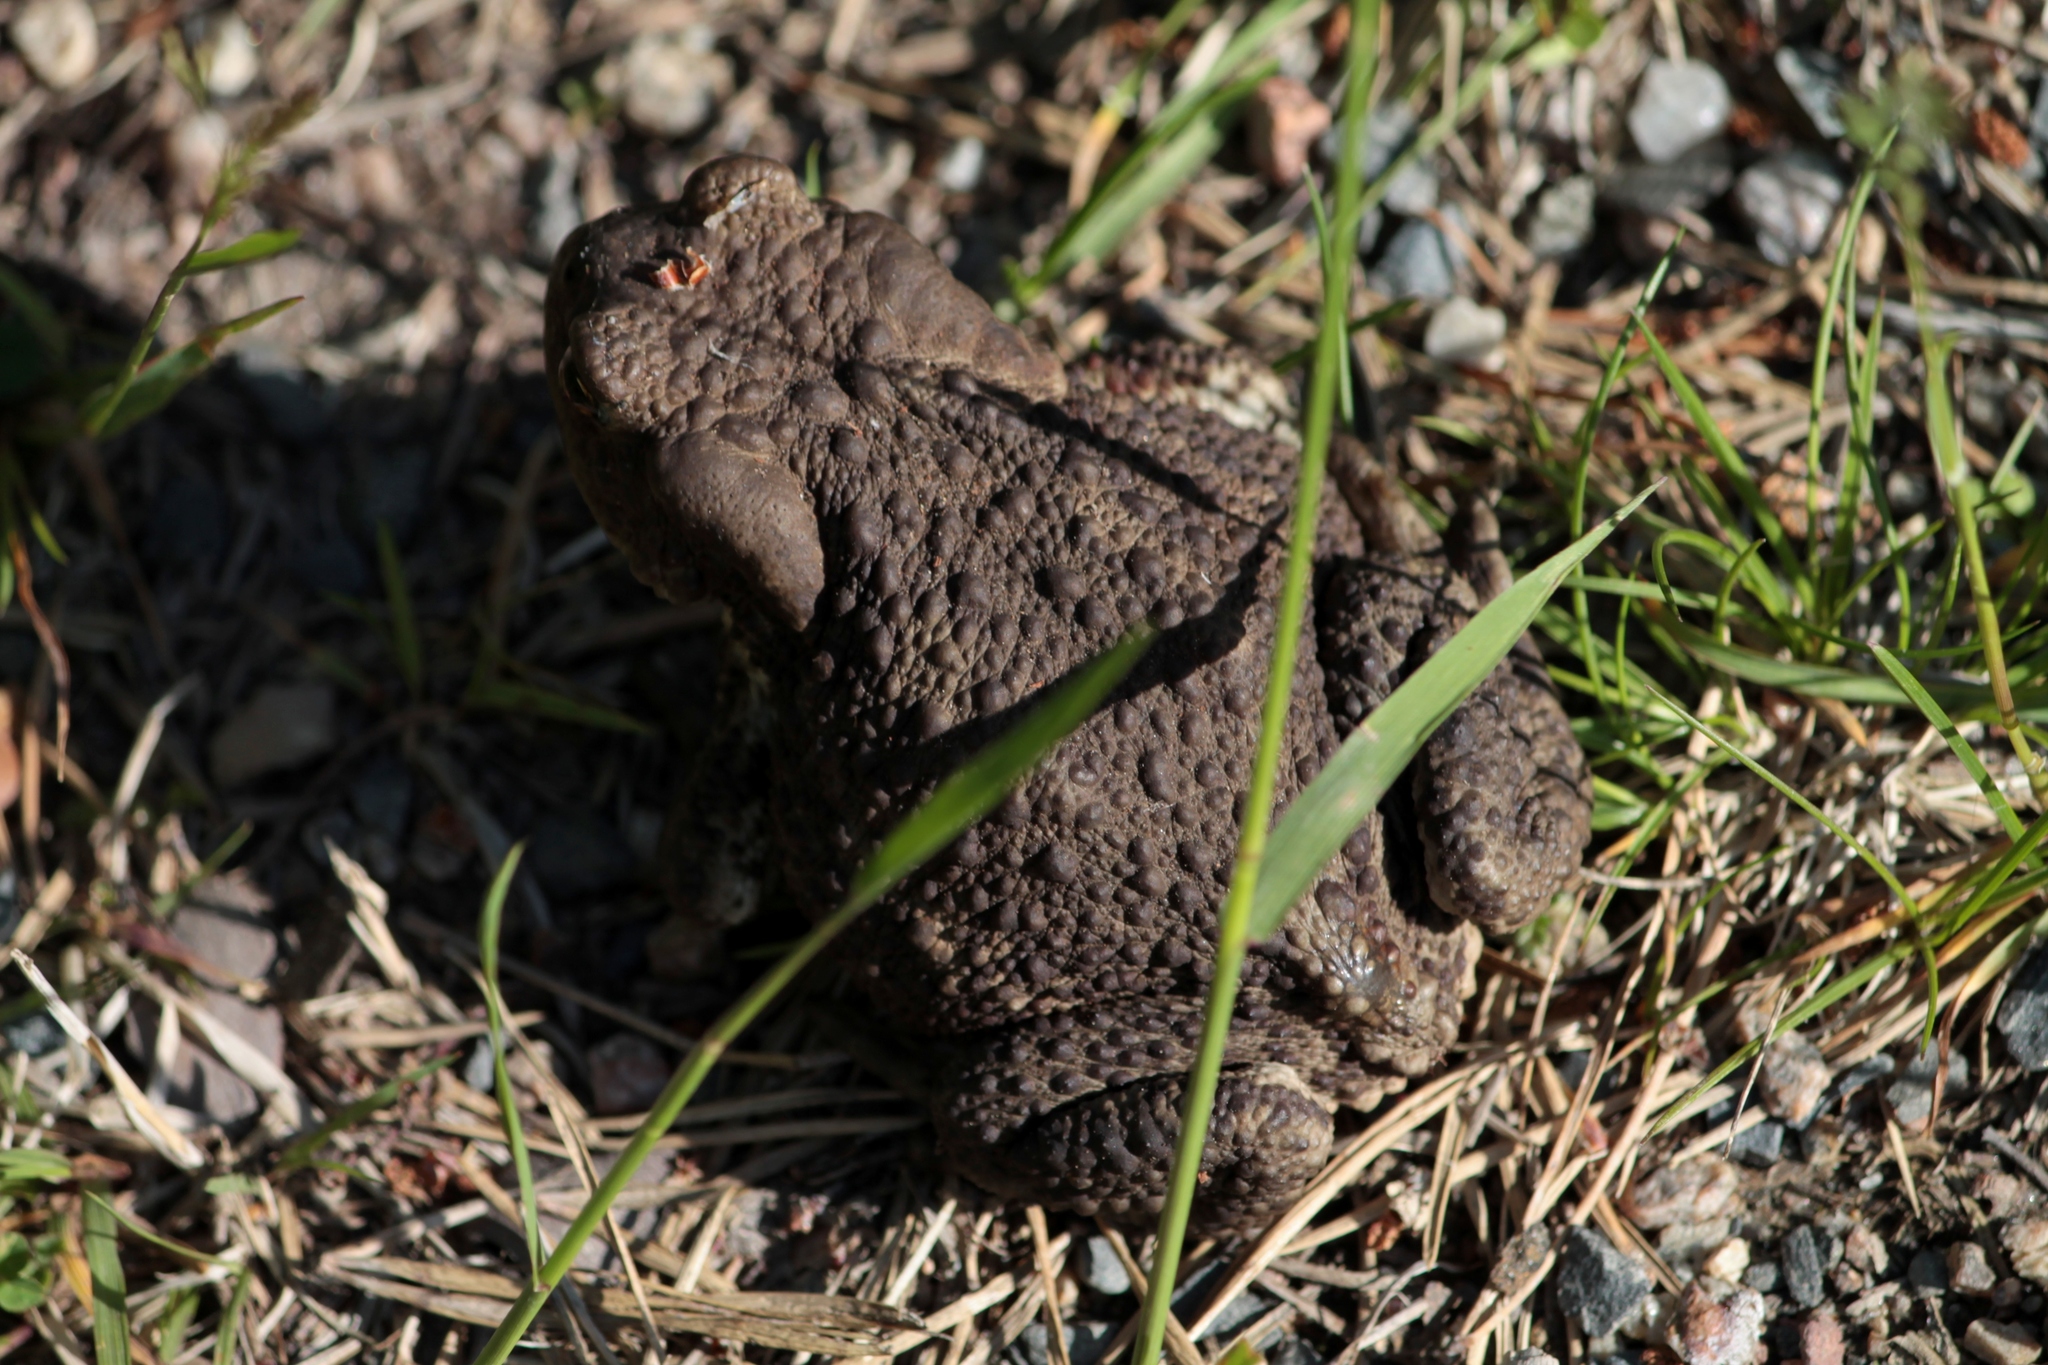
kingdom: Animalia
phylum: Chordata
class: Amphibia
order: Anura
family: Bufonidae
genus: Bufo
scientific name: Bufo bufo
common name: Common toad
